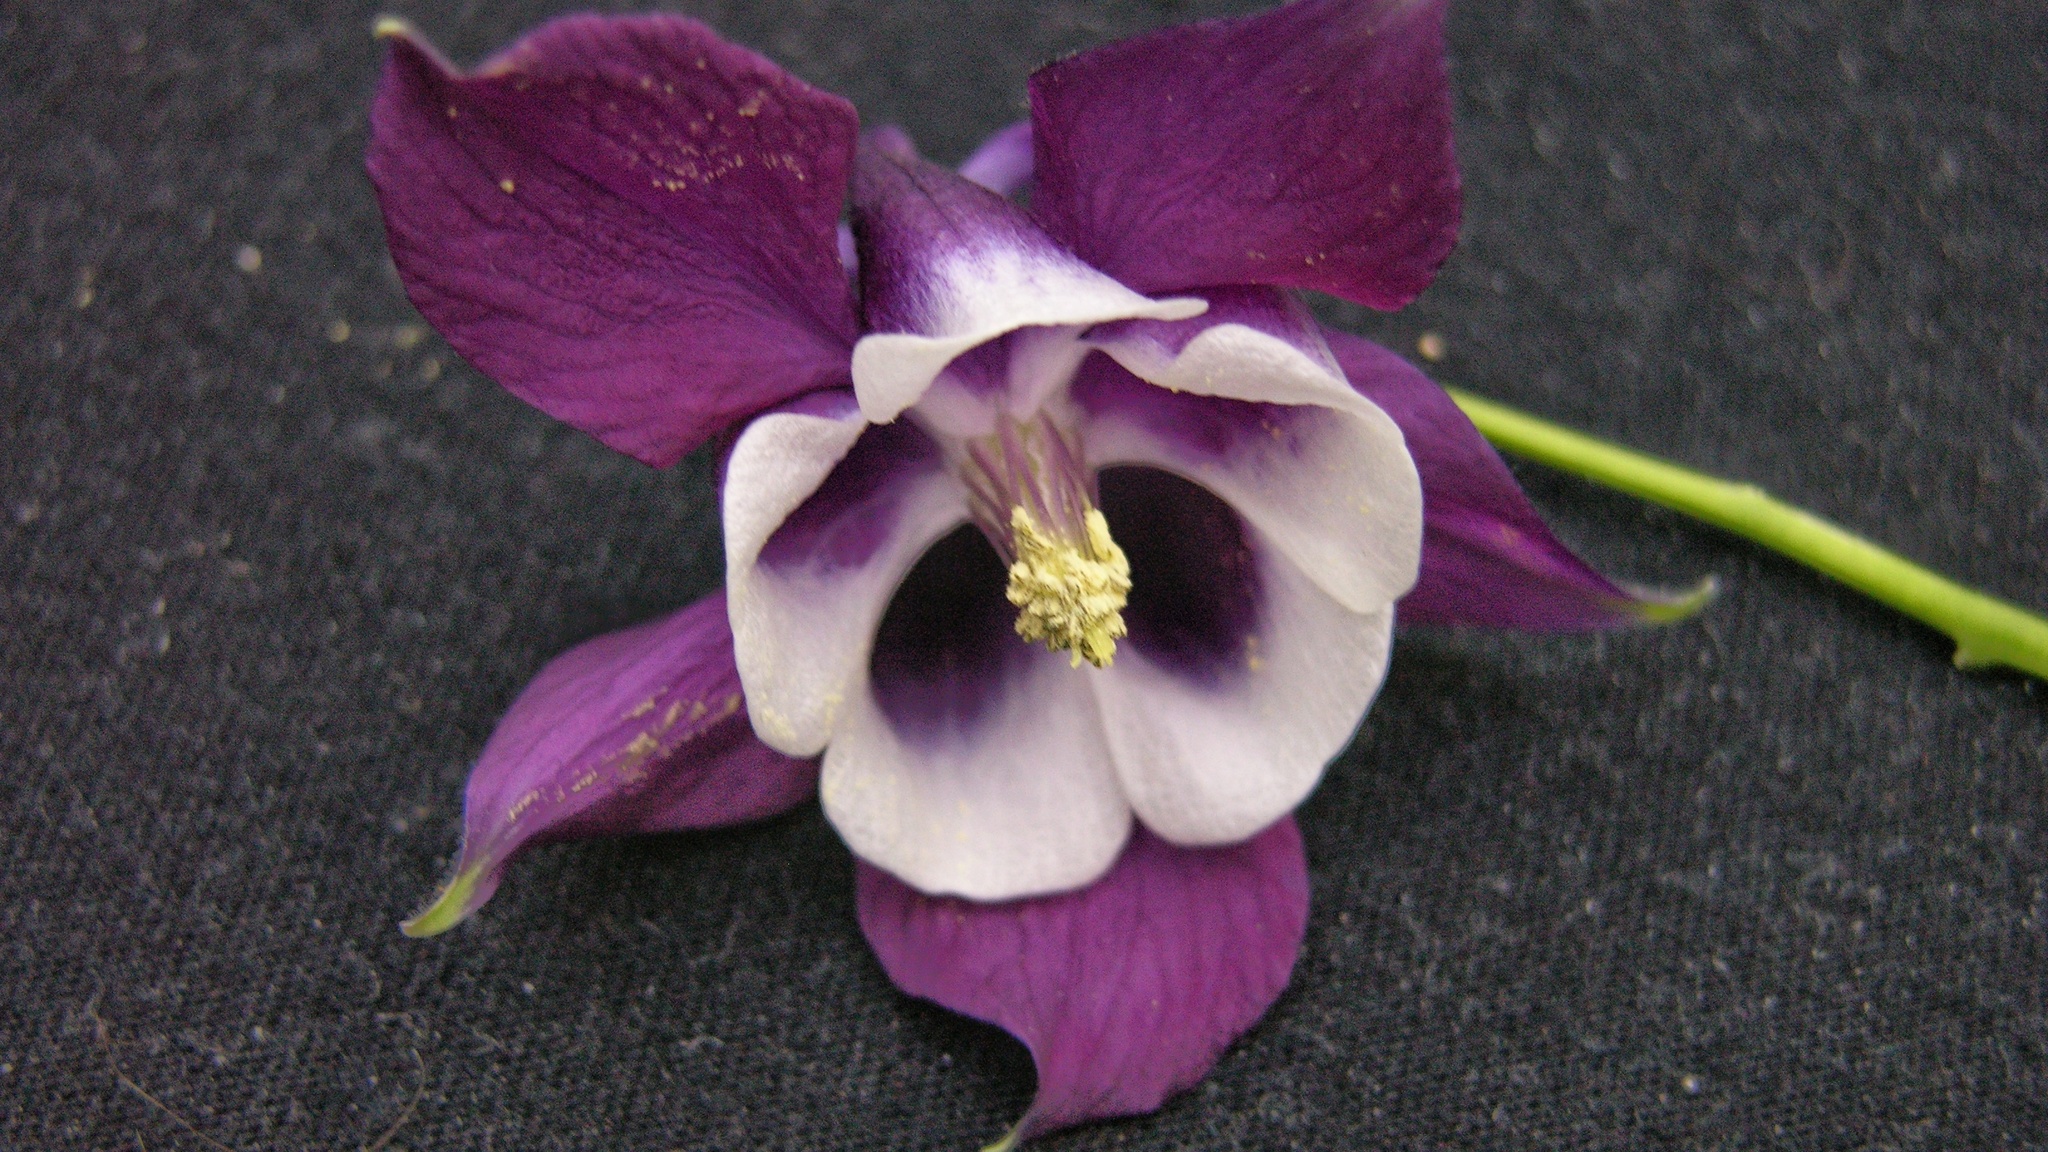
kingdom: Plantae
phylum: Tracheophyta
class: Magnoliopsida
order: Ranunculales
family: Ranunculaceae
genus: Aquilegia
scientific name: Aquilegia vulgaris
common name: Columbine
